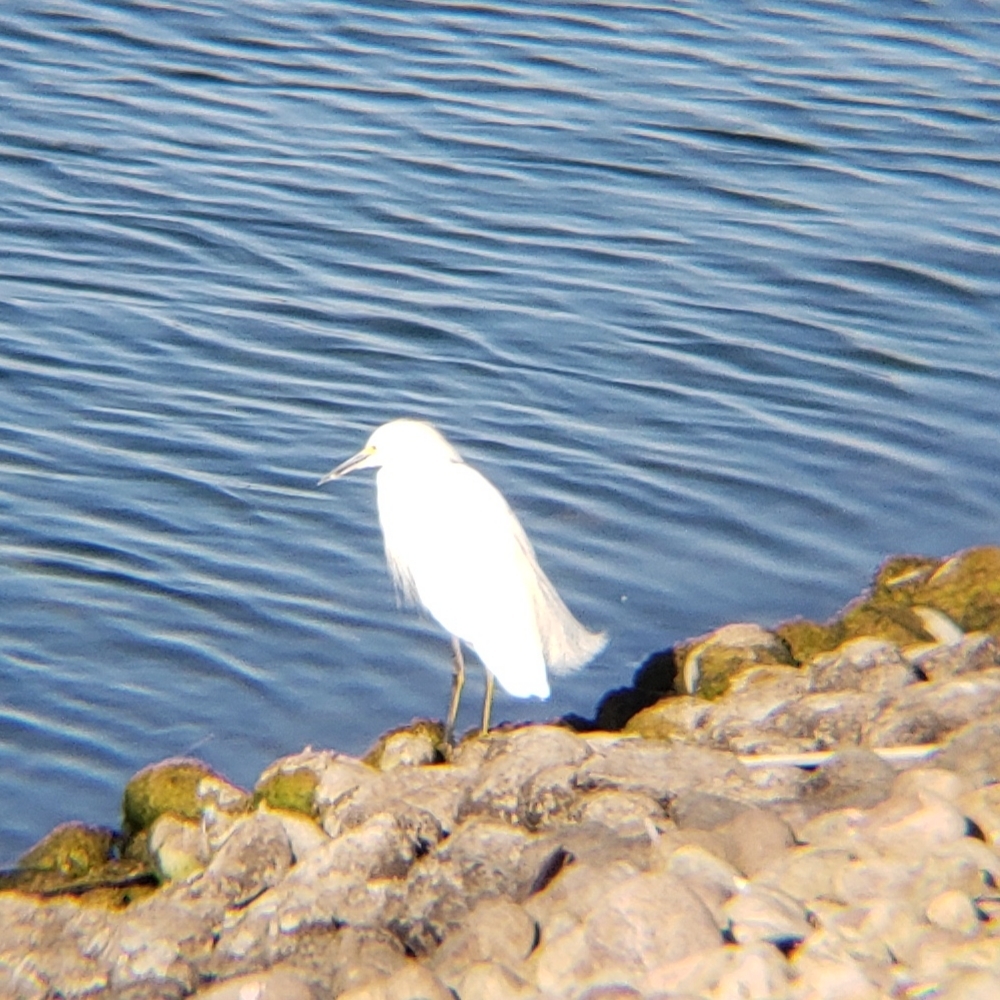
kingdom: Animalia
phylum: Chordata
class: Aves
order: Pelecaniformes
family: Ardeidae
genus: Egretta
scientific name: Egretta thula
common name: Snowy egret
